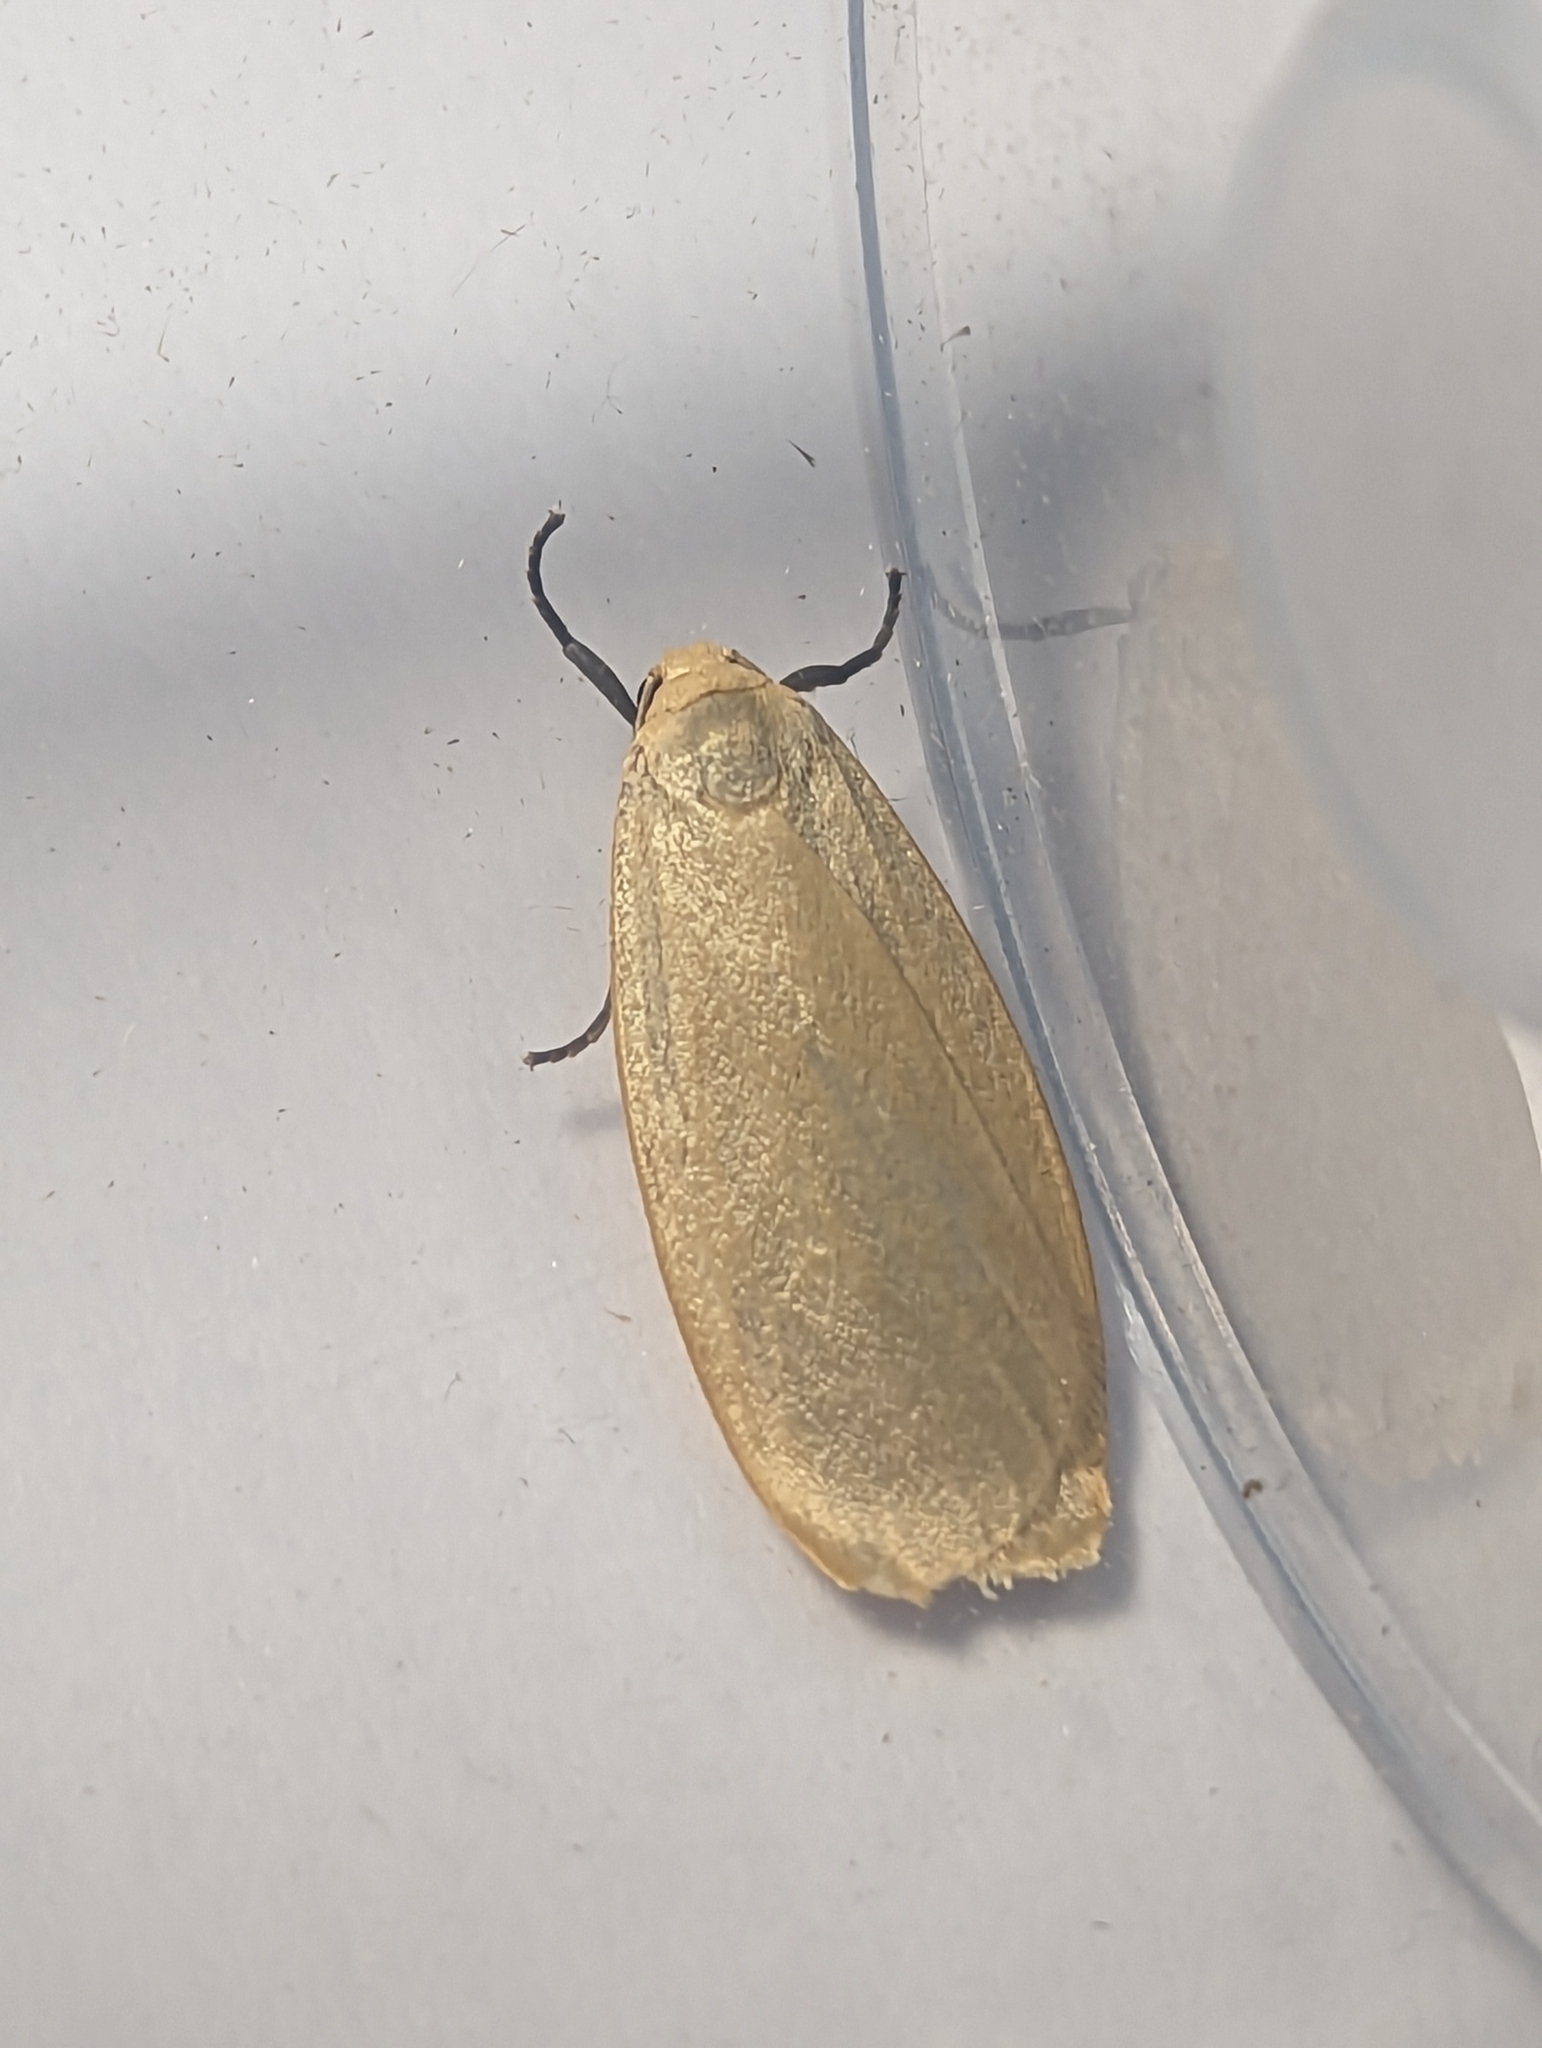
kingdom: Animalia
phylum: Arthropoda
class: Insecta
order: Lepidoptera
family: Erebidae
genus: Collita
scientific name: Collita griseola
